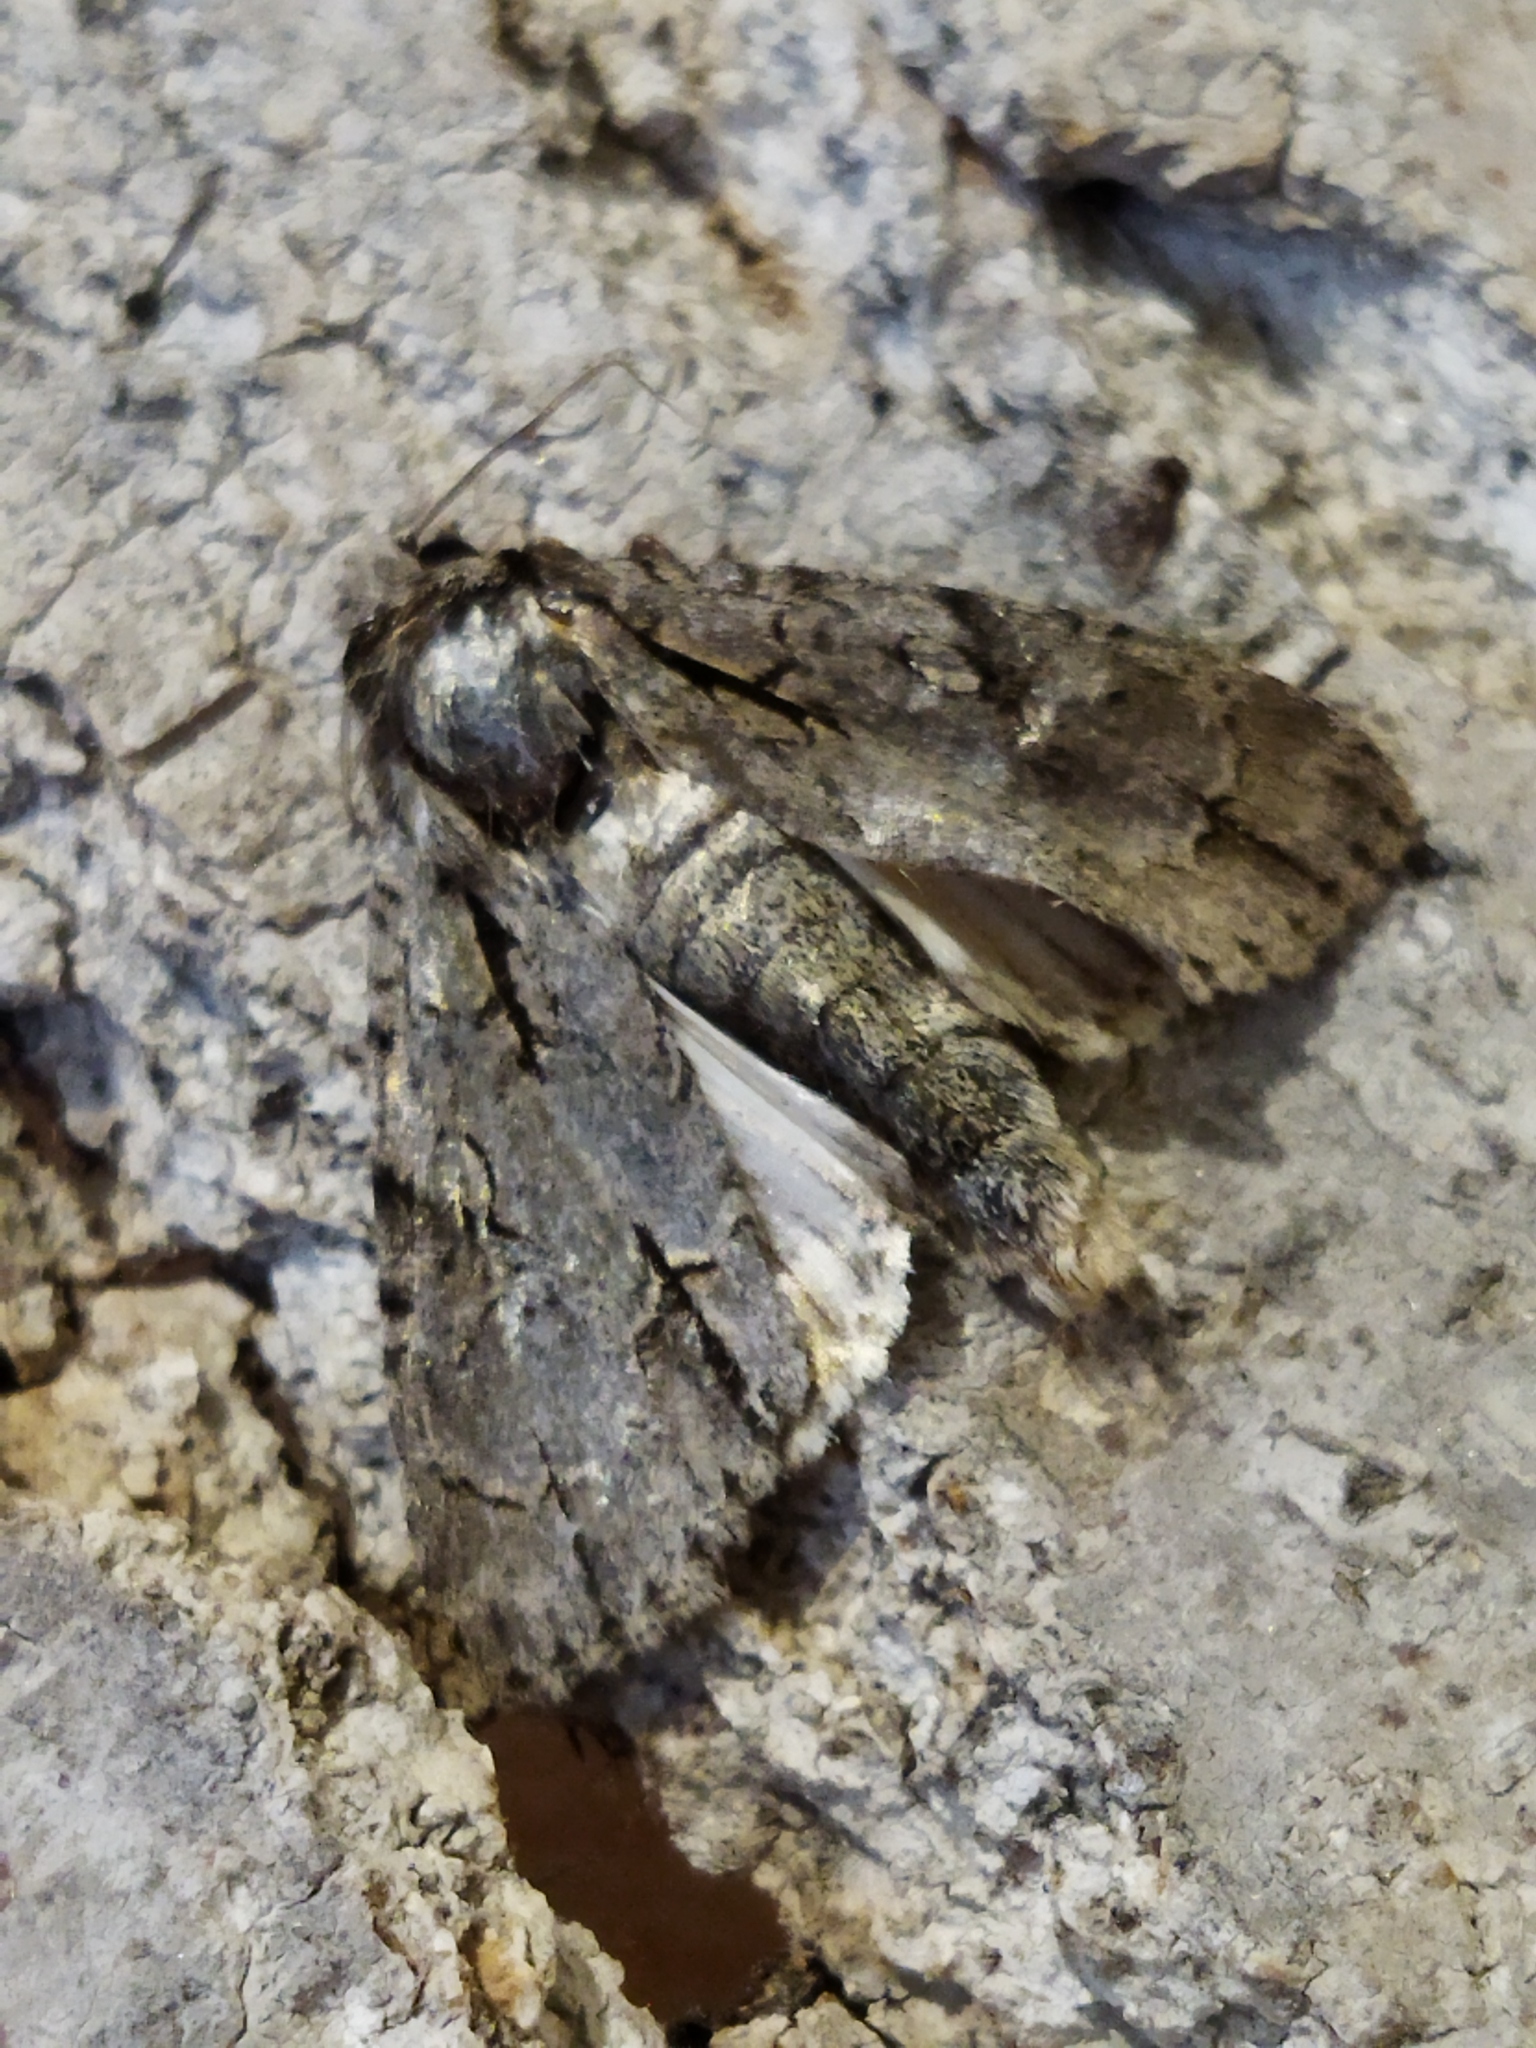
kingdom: Animalia
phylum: Arthropoda
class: Insecta
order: Lepidoptera
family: Noctuidae
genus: Acronicta
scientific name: Acronicta
